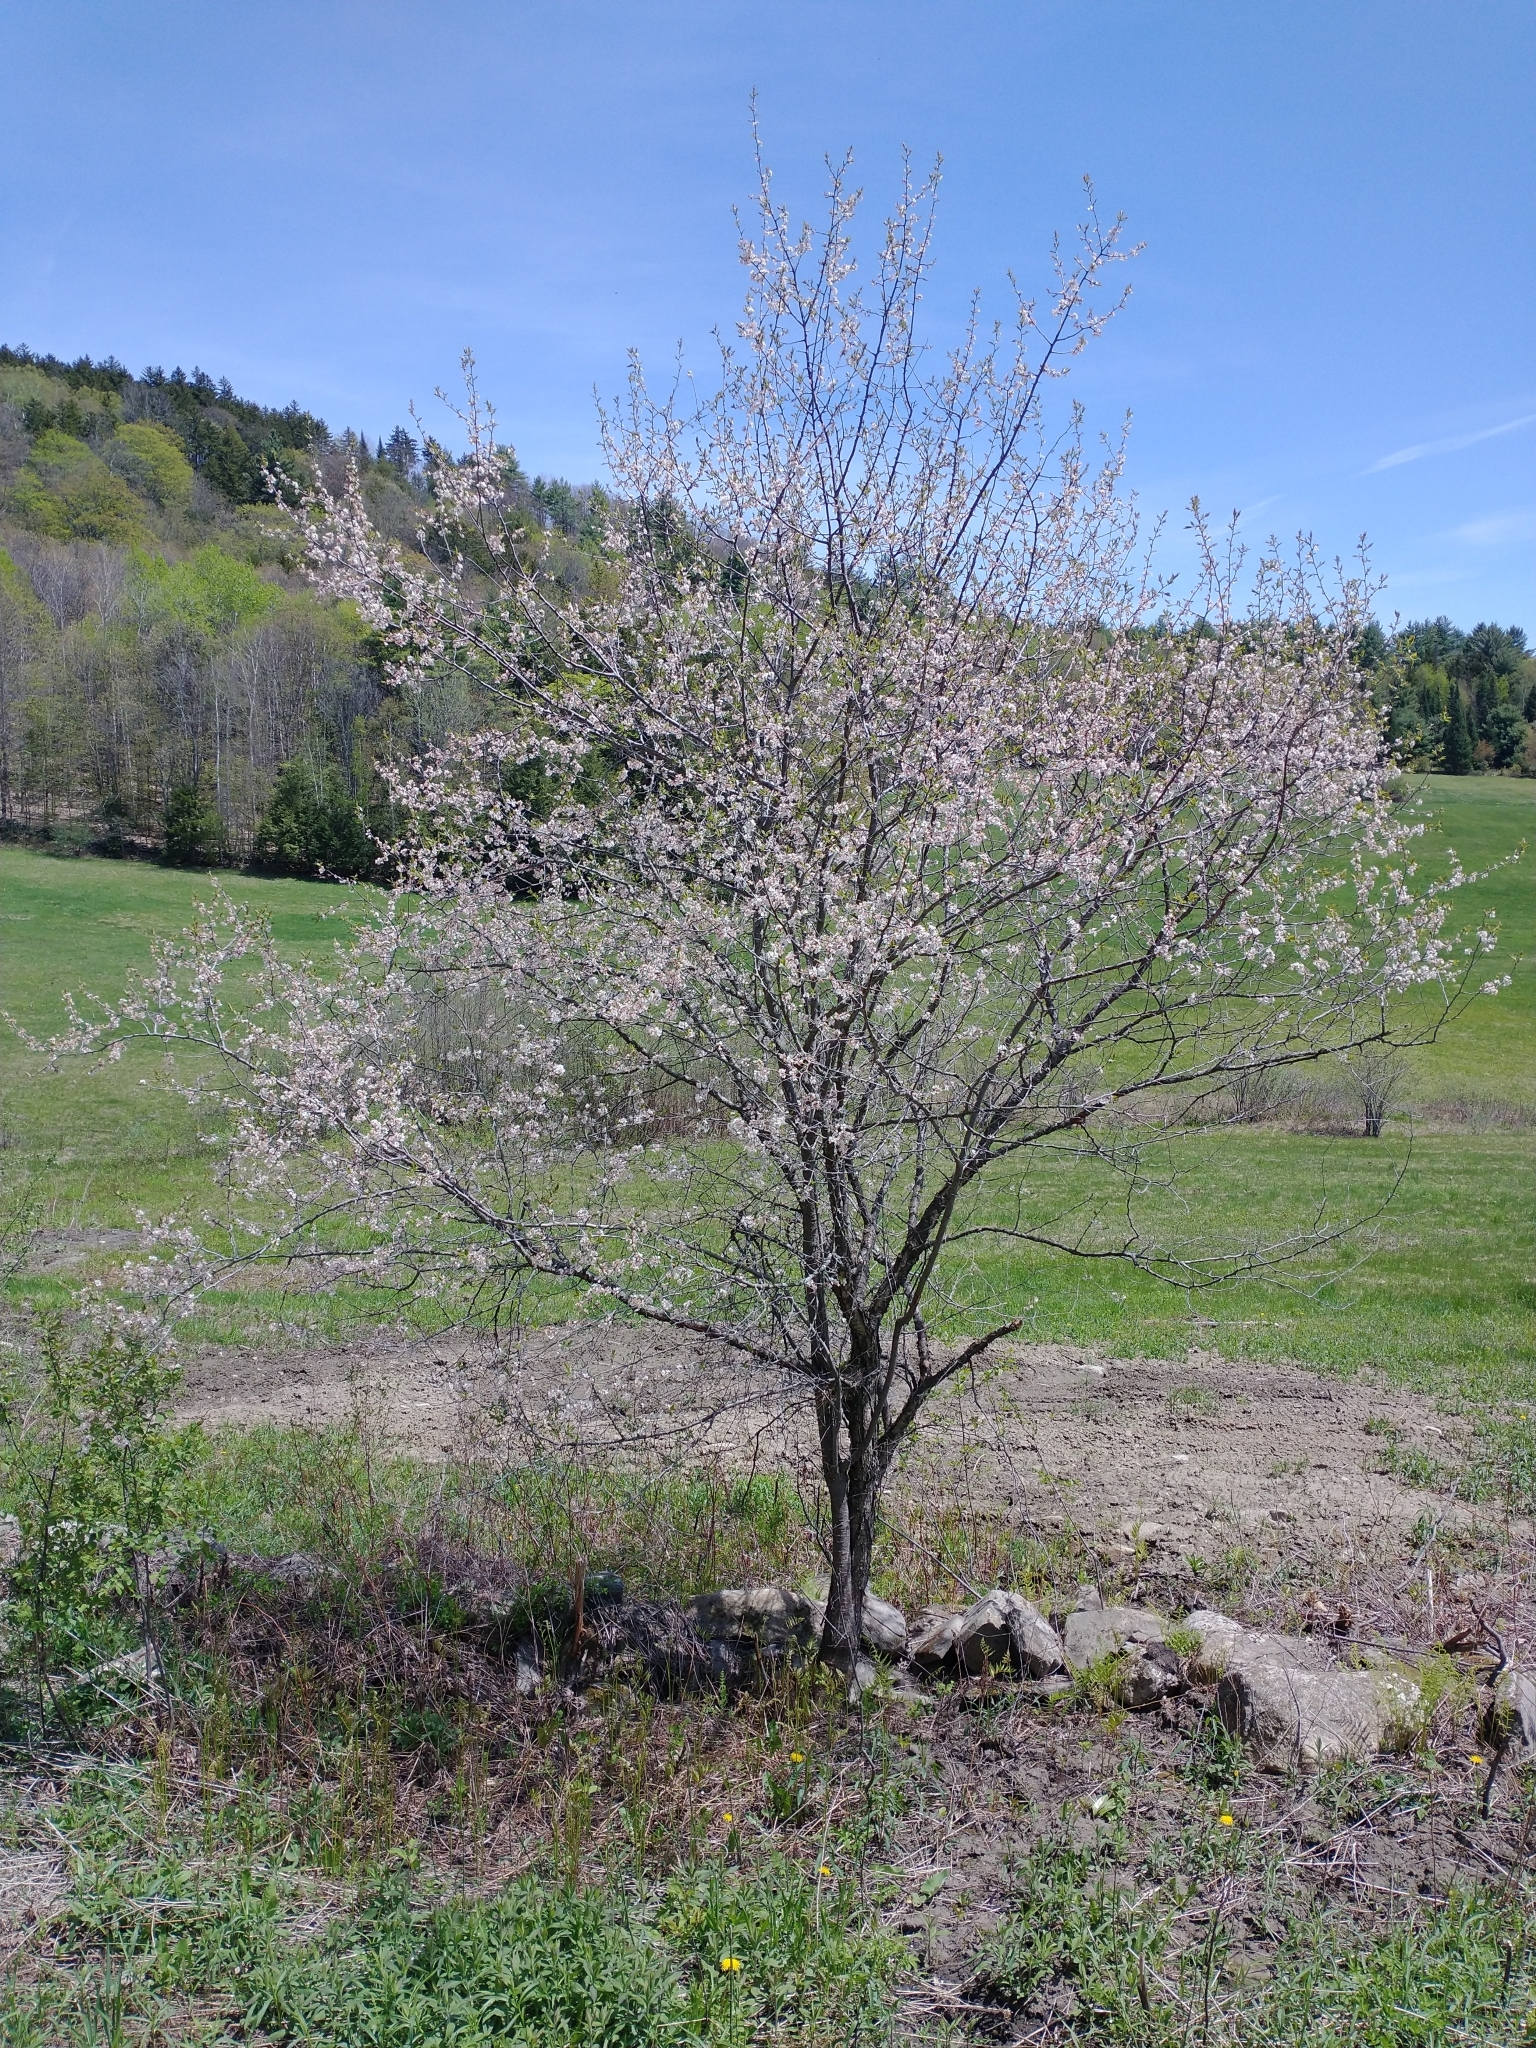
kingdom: Plantae
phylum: Tracheophyta
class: Magnoliopsida
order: Rosales
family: Rosaceae
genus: Prunus
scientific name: Prunus nigra
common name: Black plum
